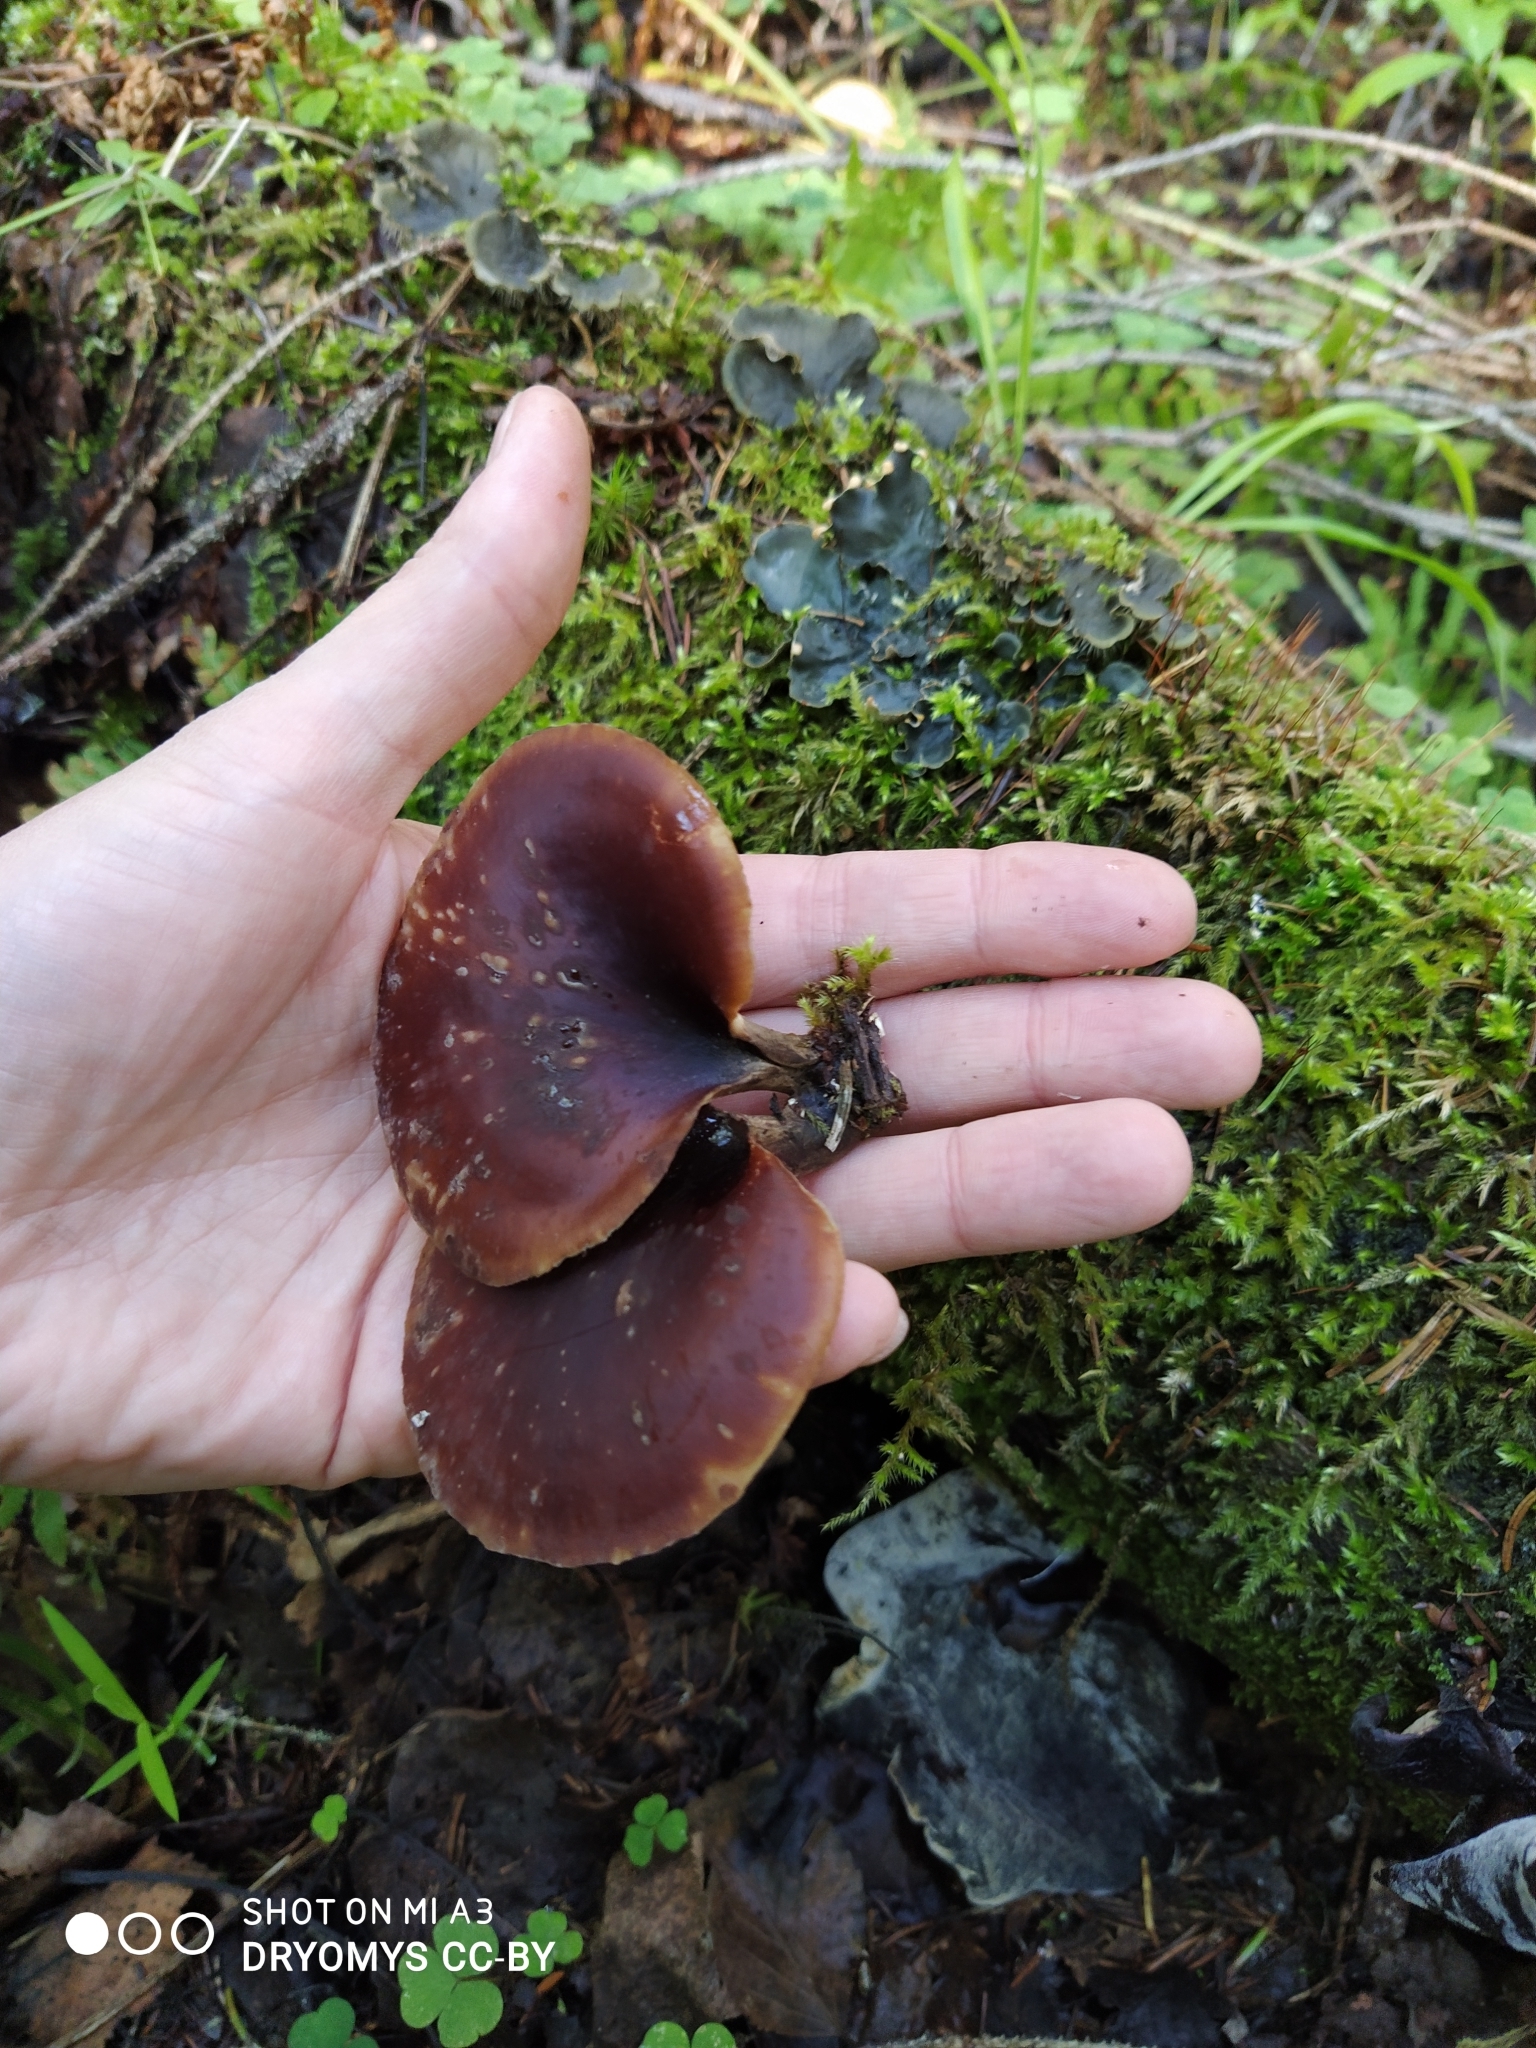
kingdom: Fungi
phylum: Basidiomycota
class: Agaricomycetes
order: Polyporales
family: Polyporaceae
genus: Picipes
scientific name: Picipes badius
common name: Bay polypore
